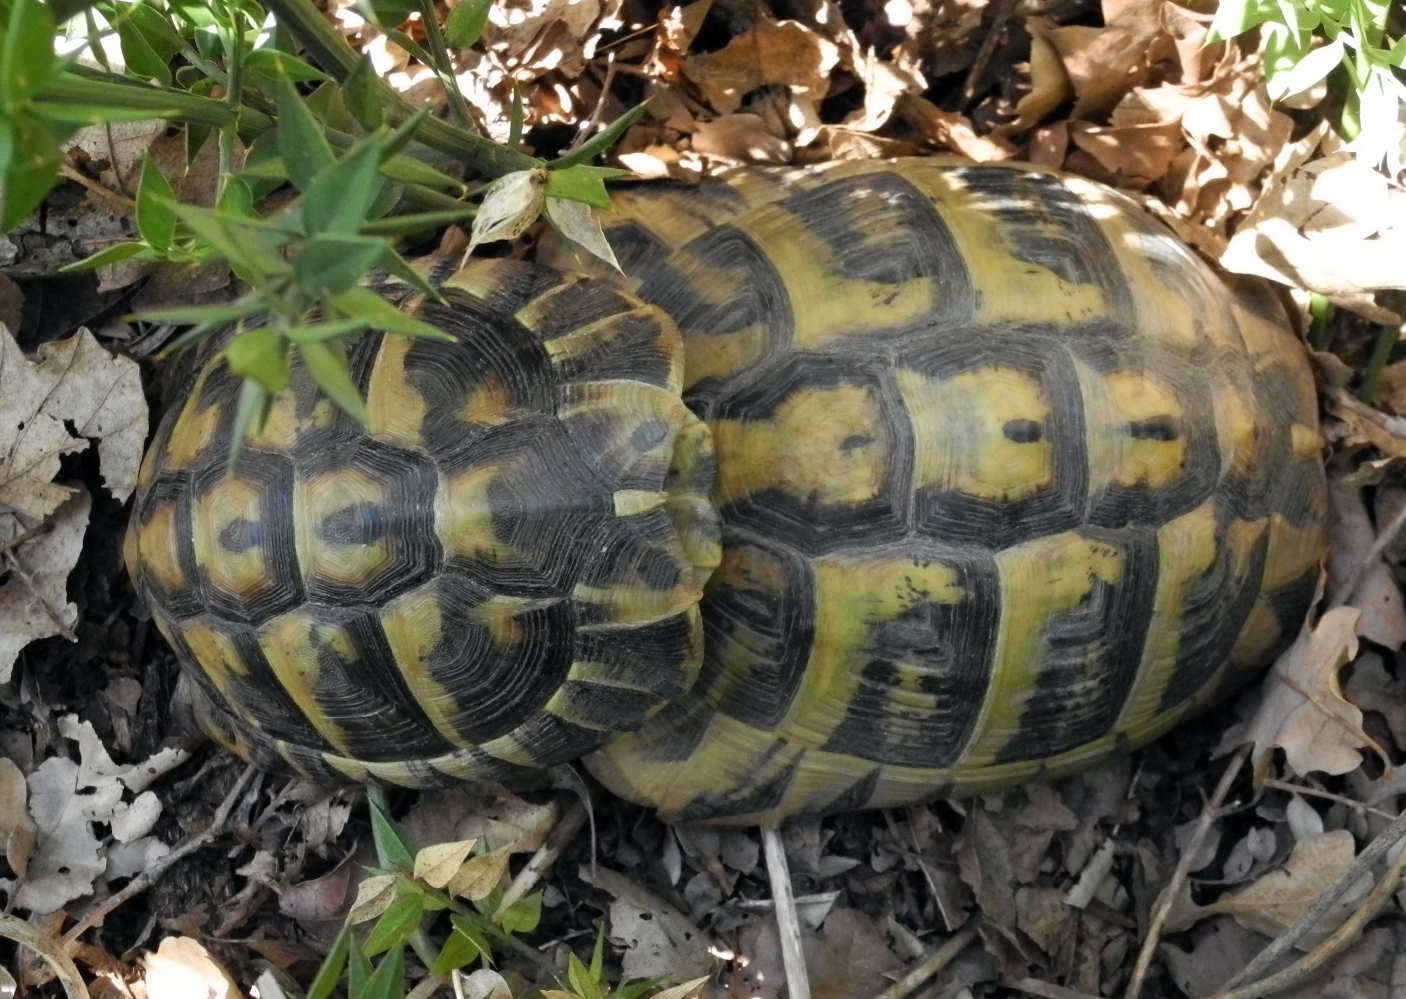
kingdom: Animalia
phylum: Chordata
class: Testudines
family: Testudinidae
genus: Testudo
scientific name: Testudo hermanni
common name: Hermann's tortoise
